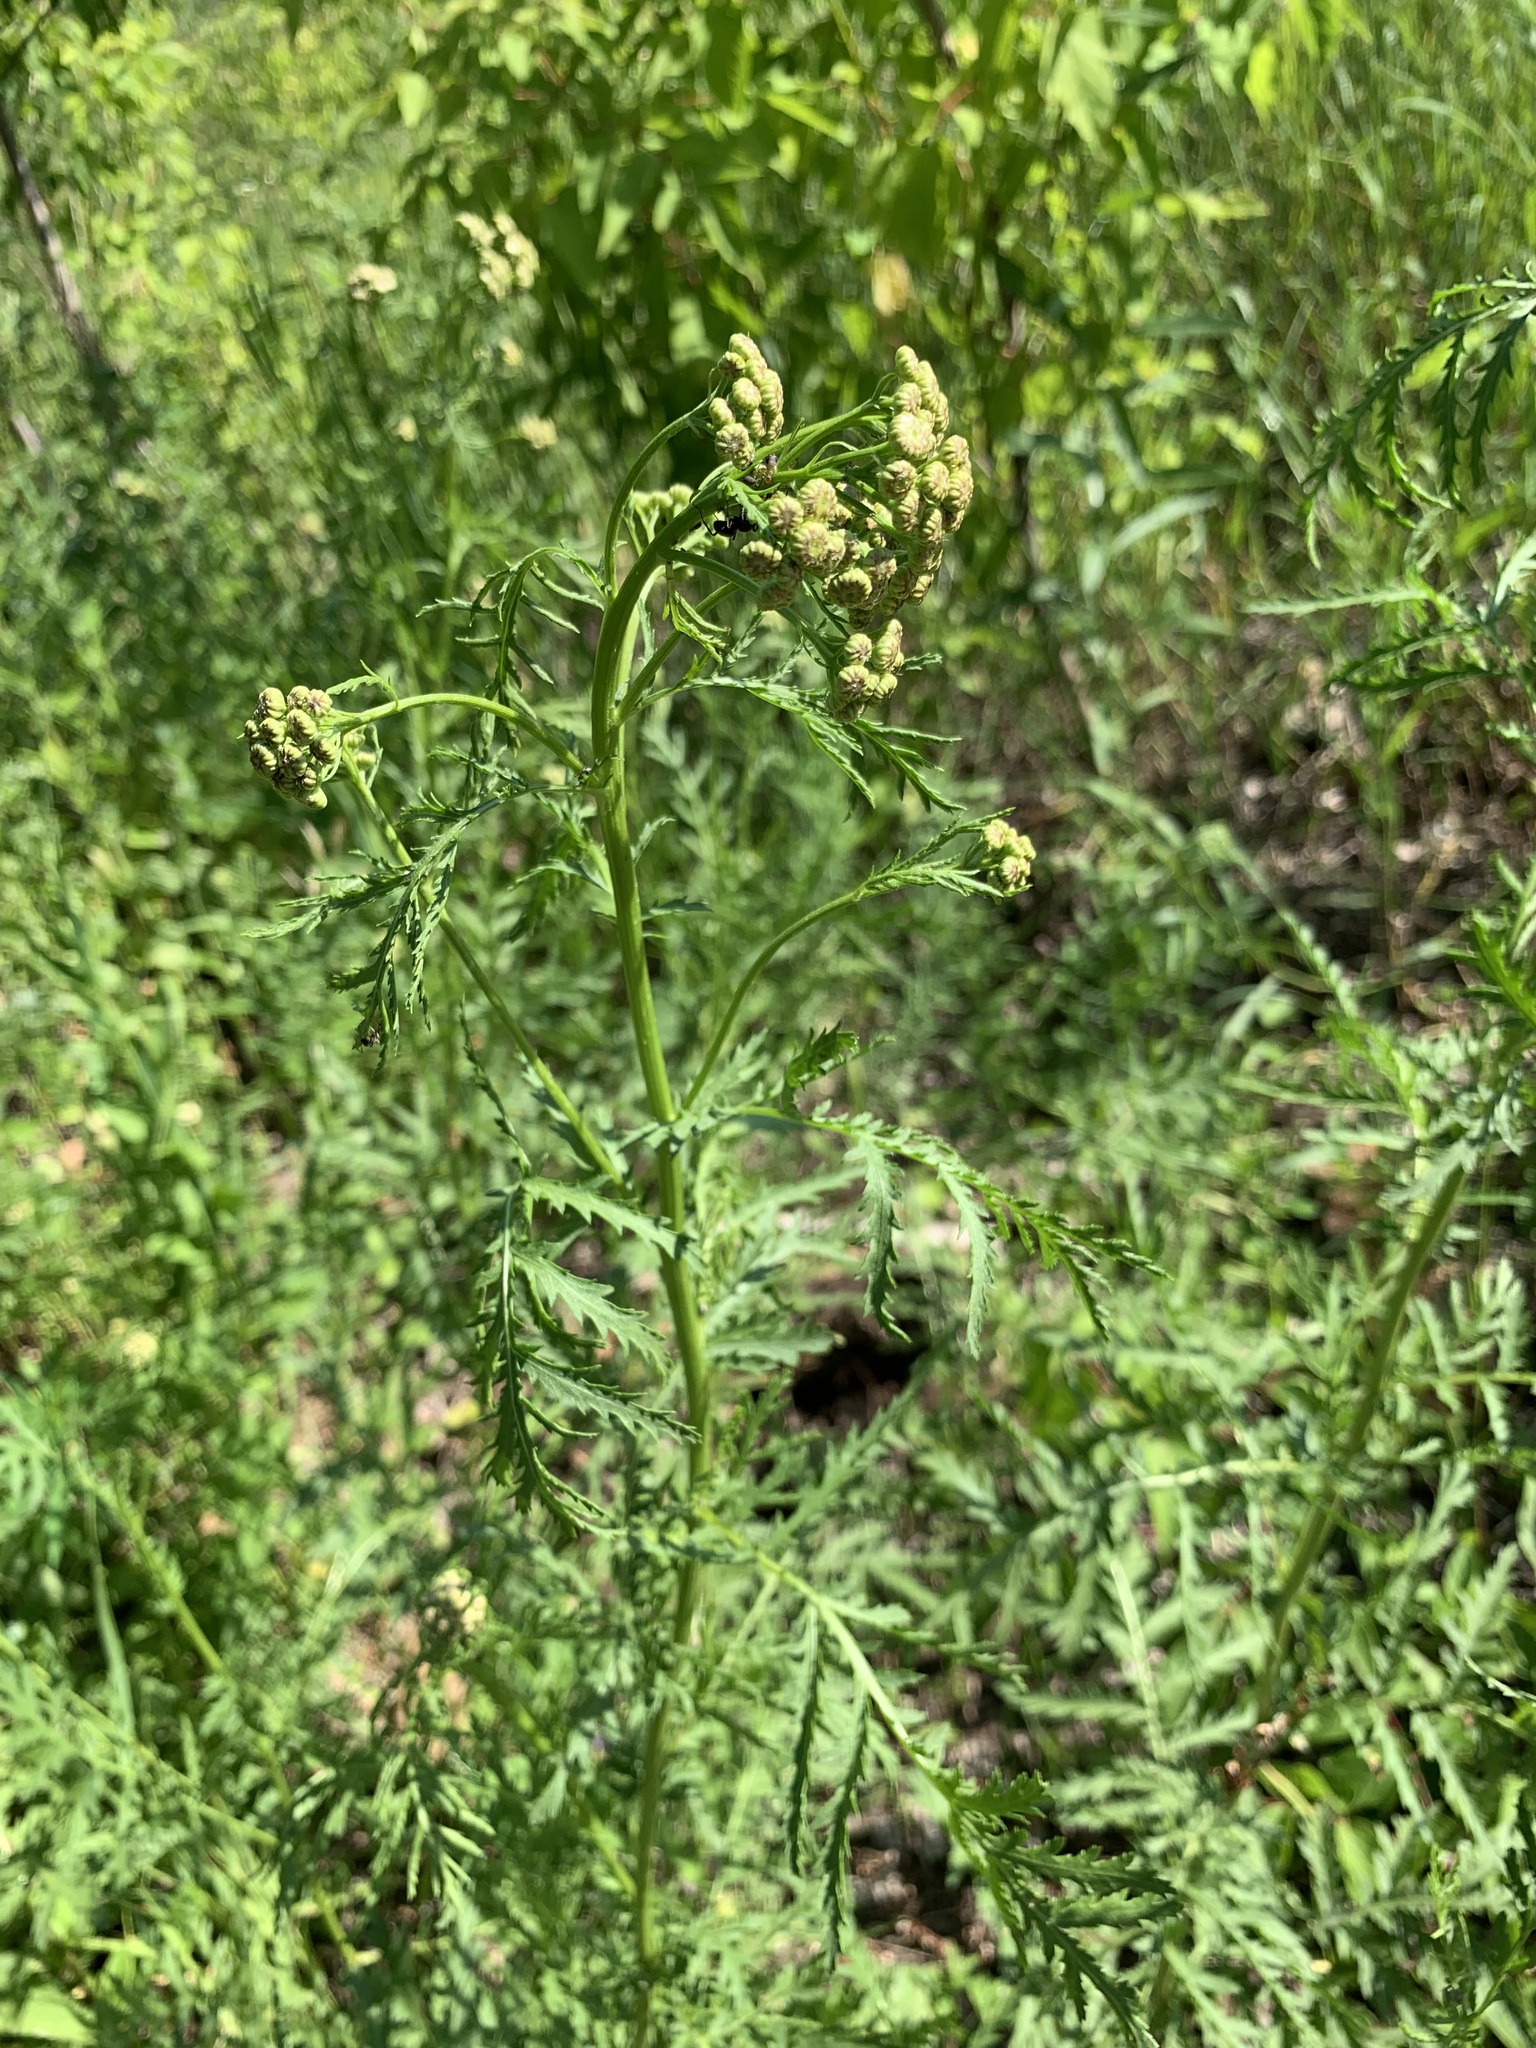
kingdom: Plantae
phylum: Tracheophyta
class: Magnoliopsida
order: Asterales
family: Asteraceae
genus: Tanacetum
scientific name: Tanacetum vulgare
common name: Common tansy
